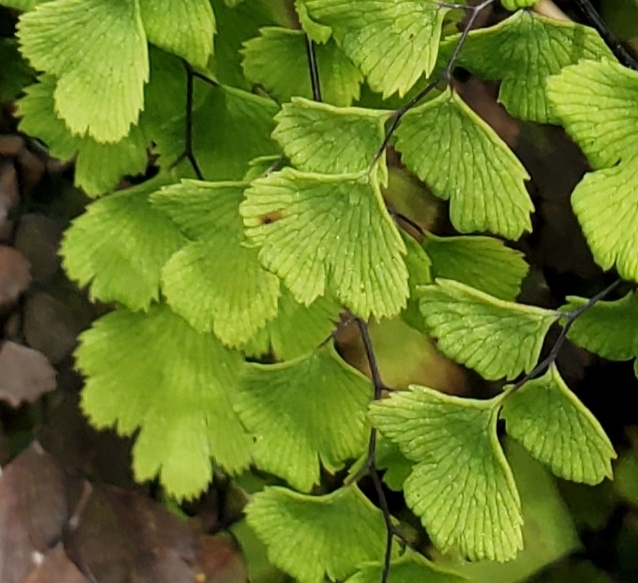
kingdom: Plantae
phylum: Tracheophyta
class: Polypodiopsida
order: Polypodiales
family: Pteridaceae
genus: Adiantum
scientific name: Adiantum capillus-veneris
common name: Maidenhair fern
